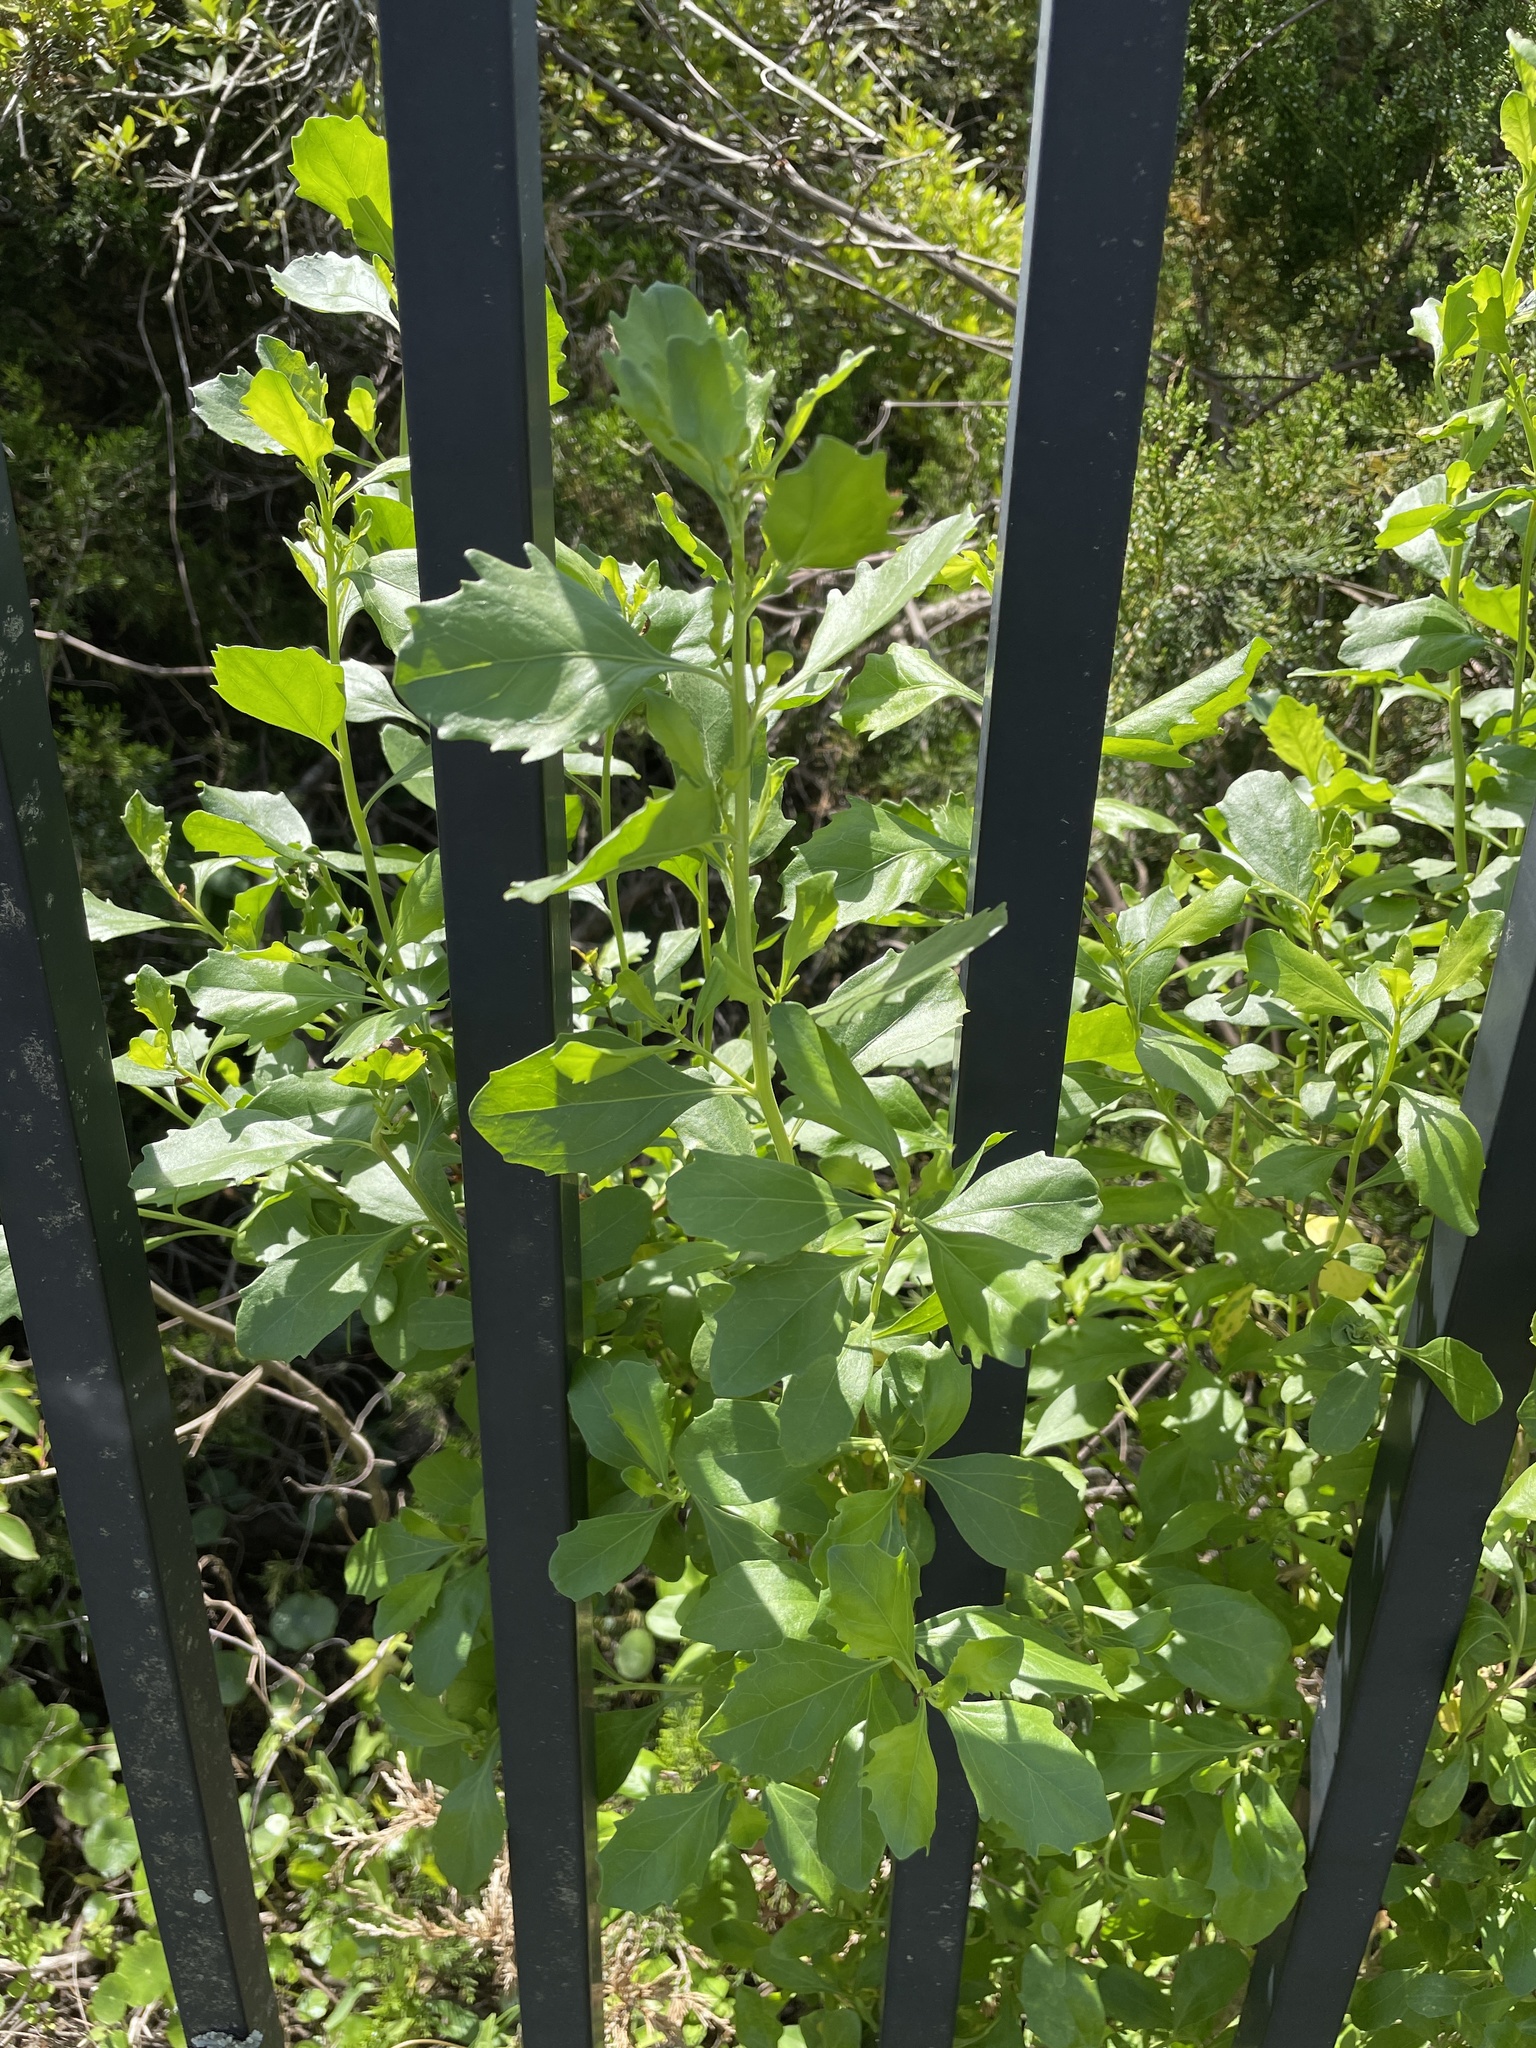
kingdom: Plantae
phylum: Tracheophyta
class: Magnoliopsida
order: Asterales
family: Asteraceae
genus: Baccharis
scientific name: Baccharis halimifolia
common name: Eastern baccharis
